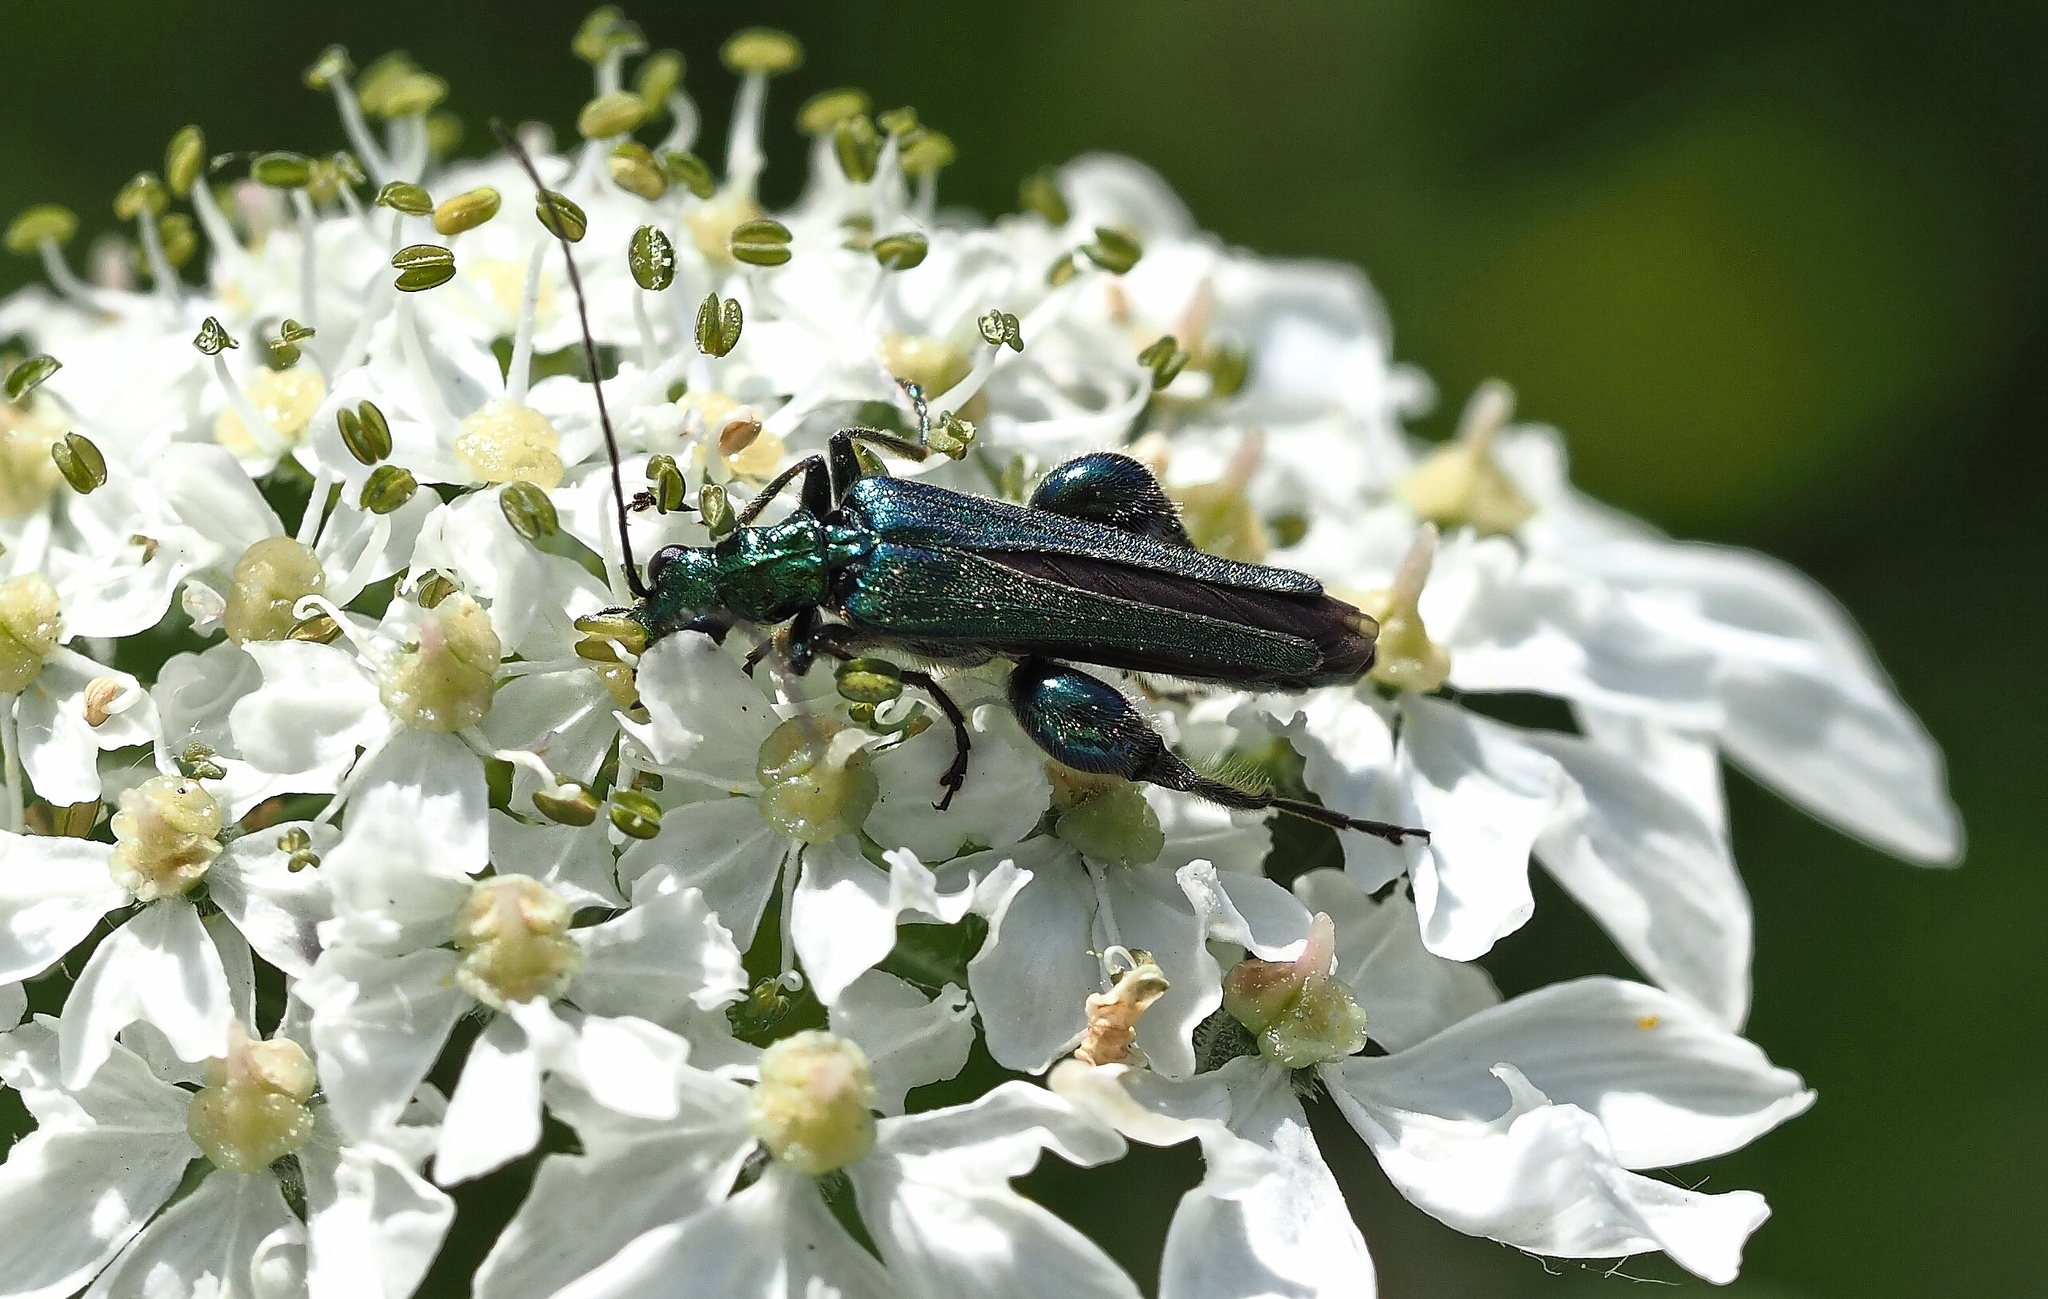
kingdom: Animalia
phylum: Arthropoda
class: Insecta
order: Coleoptera
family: Oedemeridae
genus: Oedemera
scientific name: Oedemera nobilis
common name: Swollen-thighed beetle
